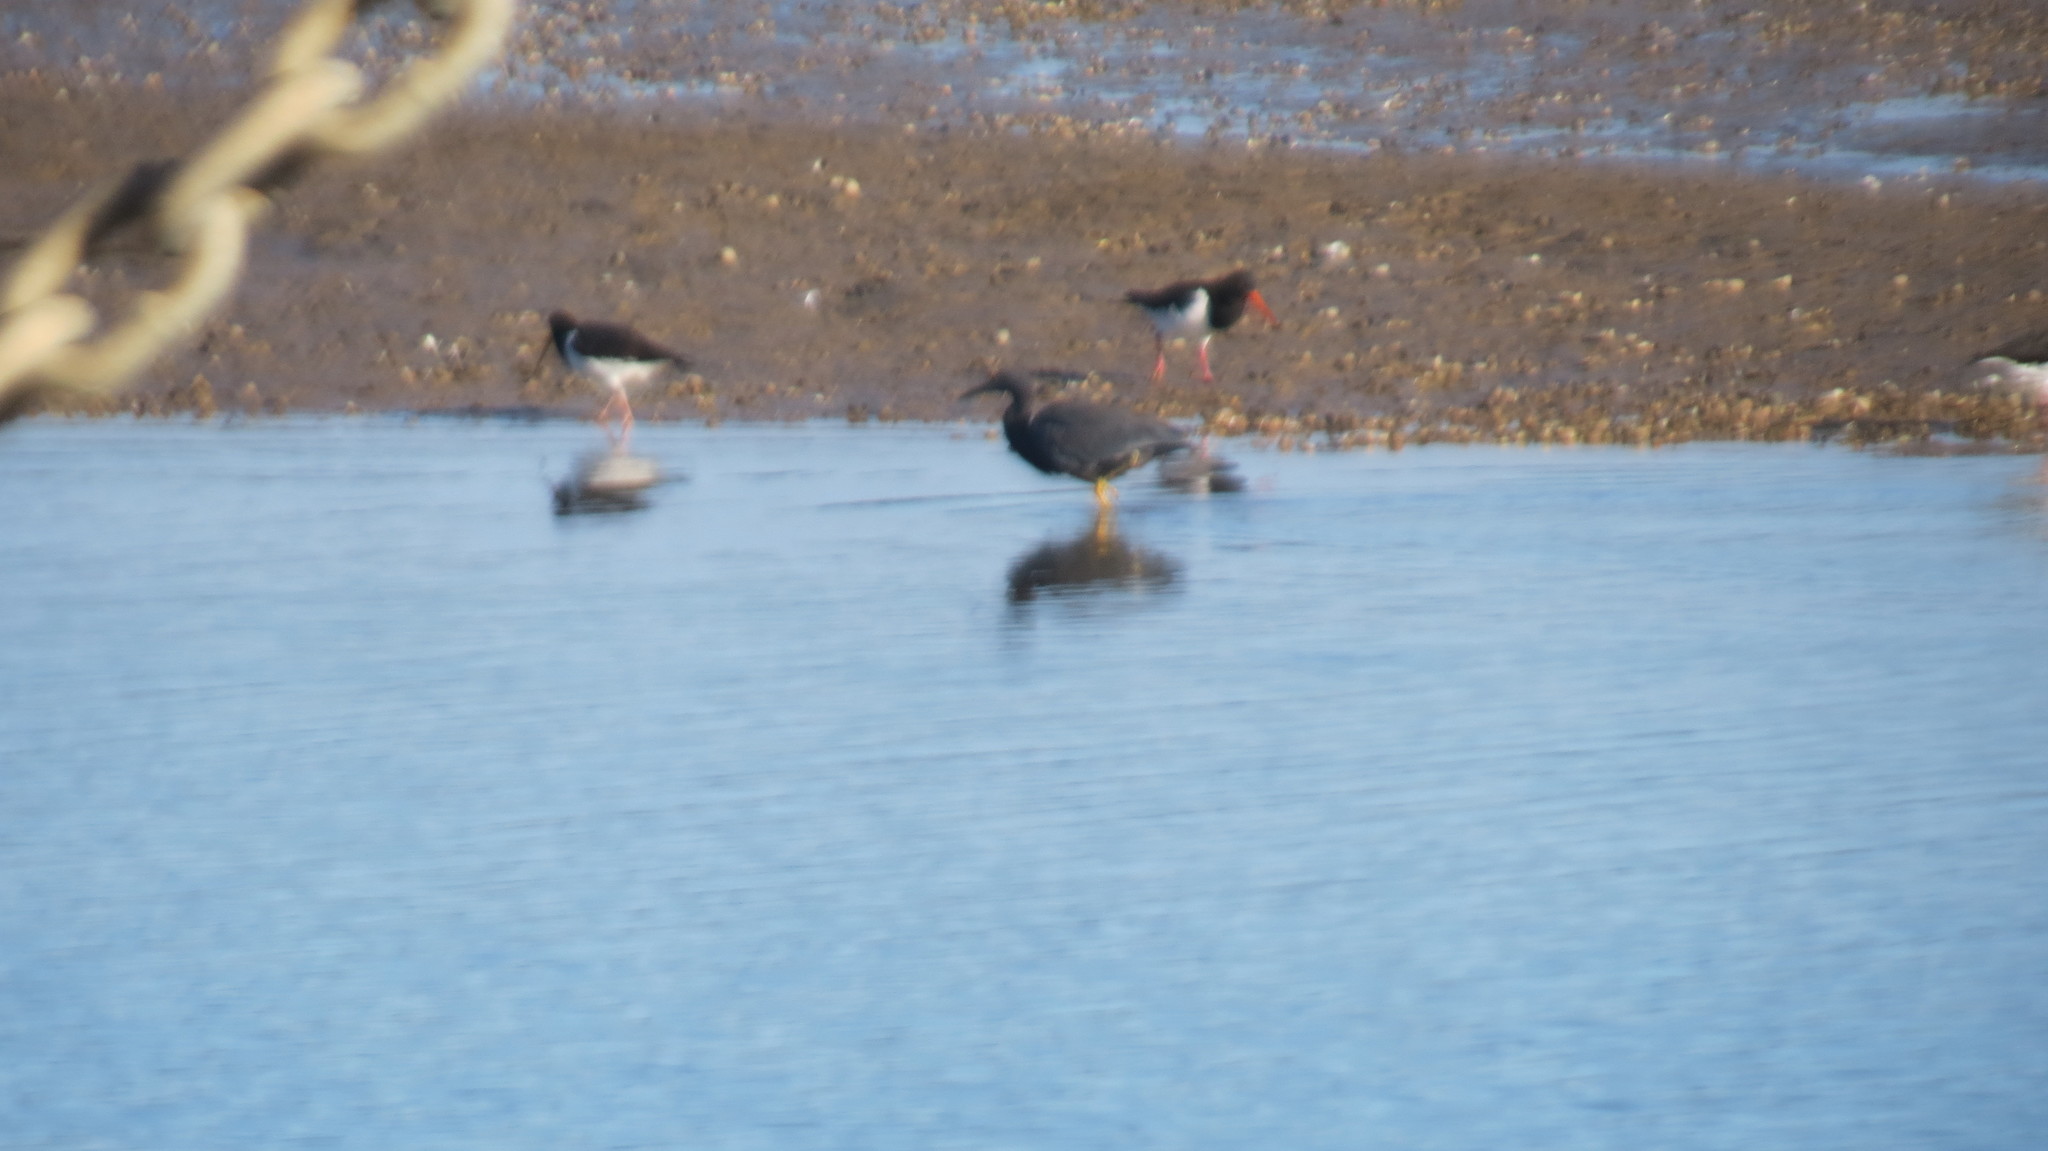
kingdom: Animalia
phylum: Chordata
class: Aves
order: Pelecaniformes
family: Ardeidae
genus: Egretta
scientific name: Egretta sacra
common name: Pacific reef heron
